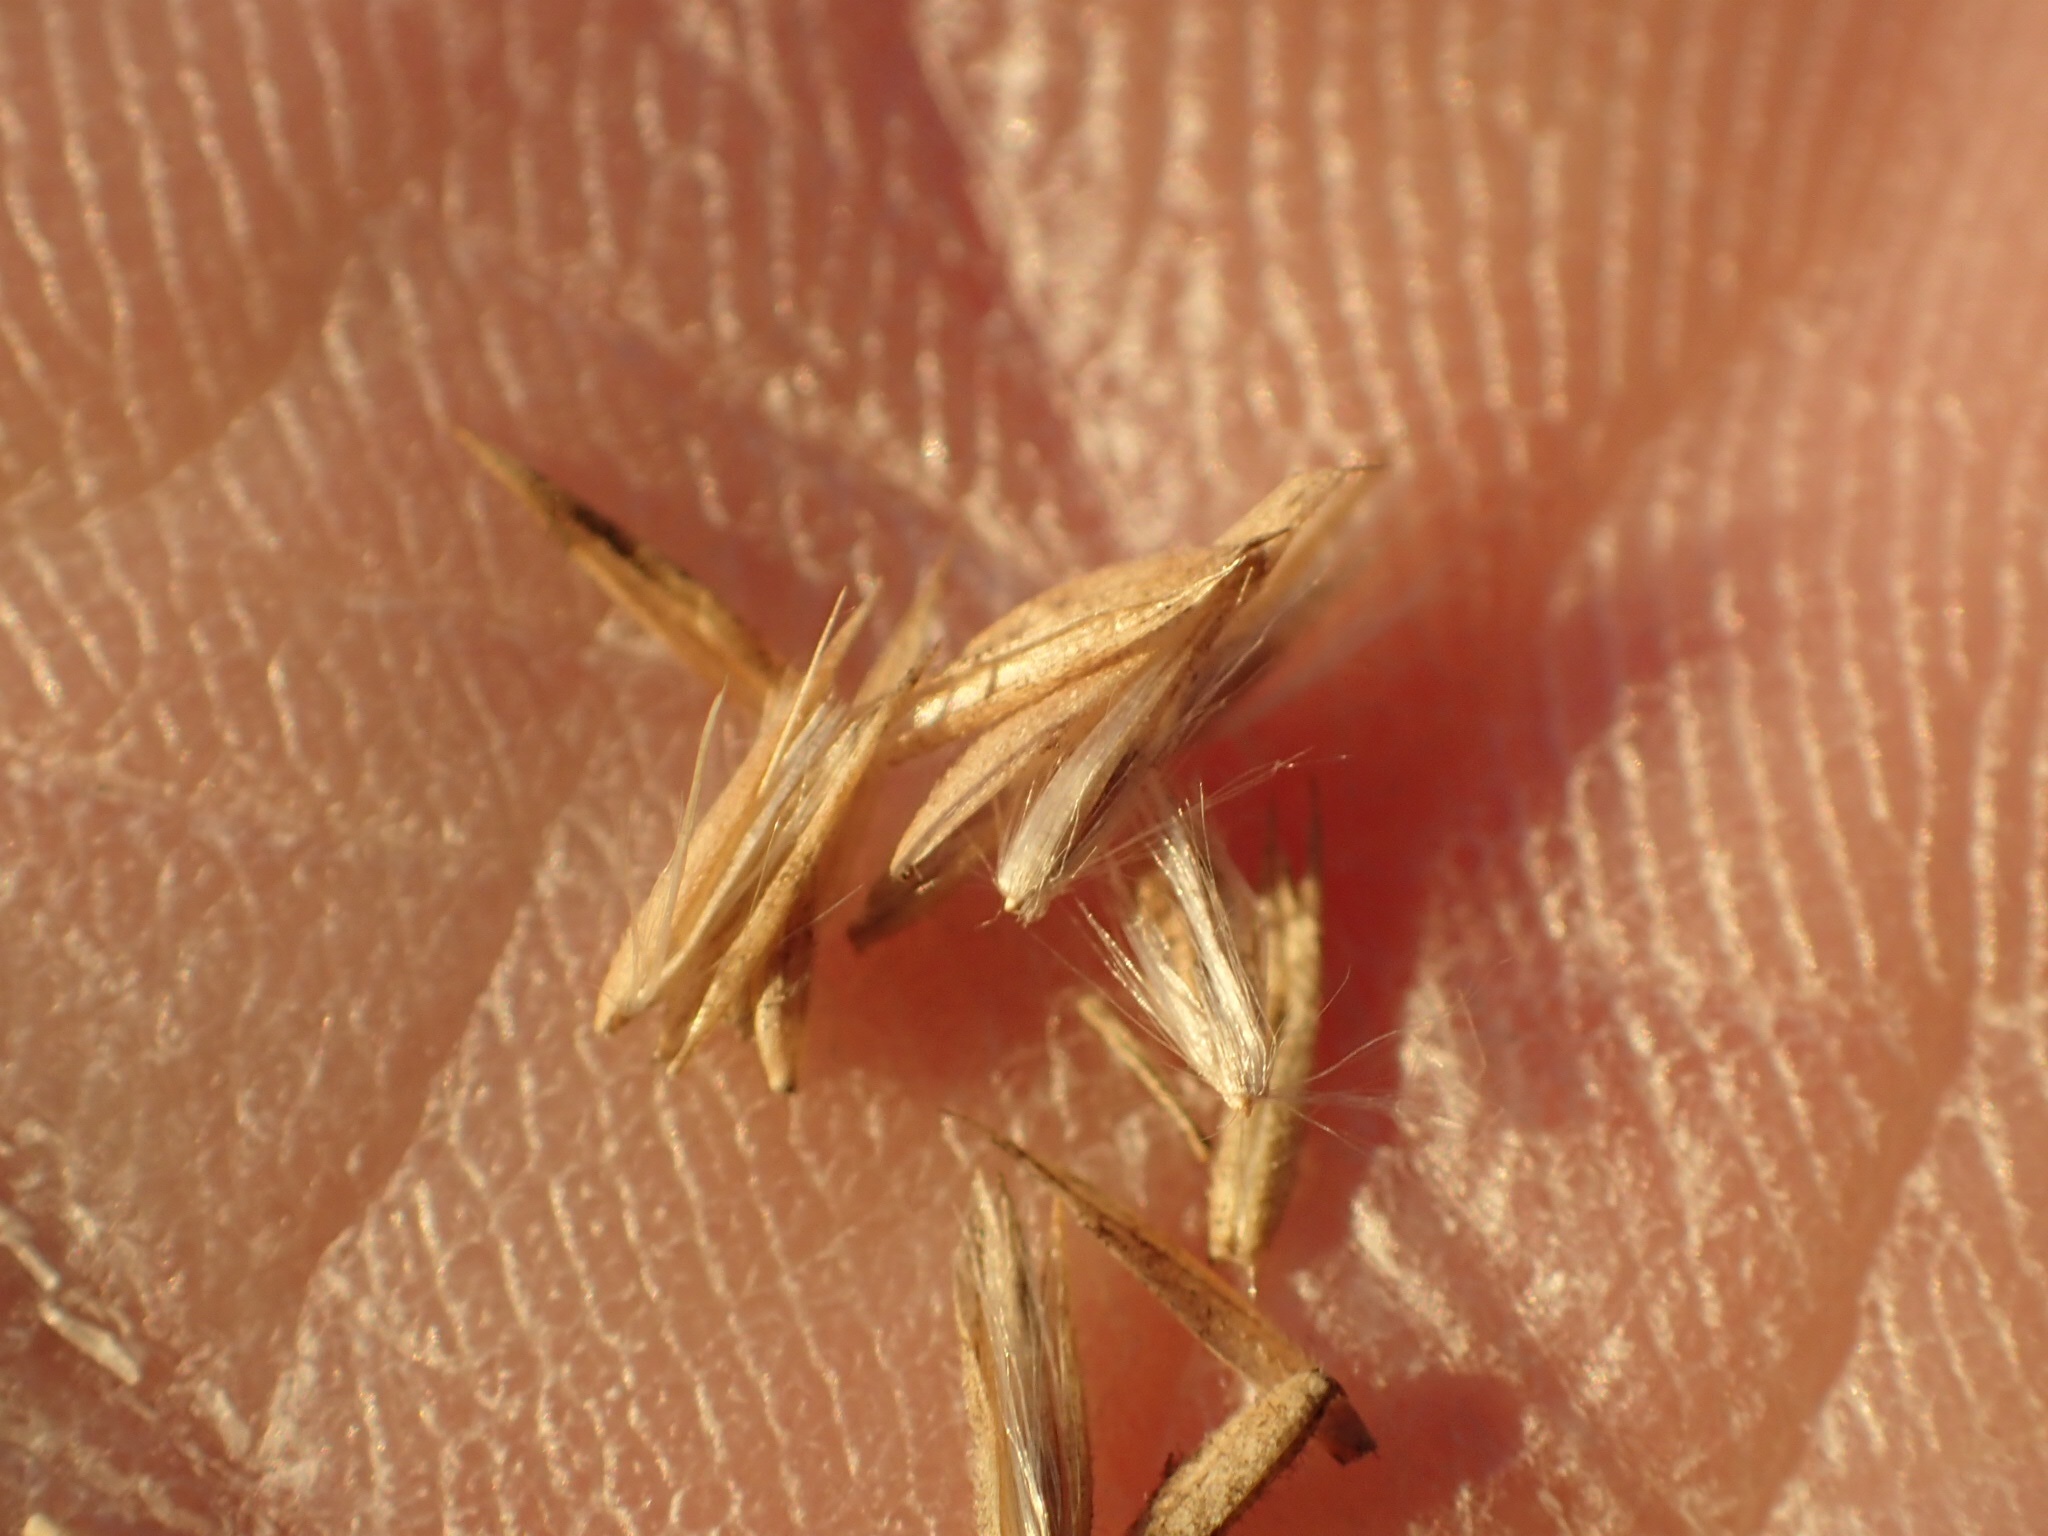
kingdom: Plantae
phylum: Tracheophyta
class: Liliopsida
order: Poales
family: Poaceae
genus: Calamagrostis
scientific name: Calamagrostis canadensis
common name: Canada bluejoint
